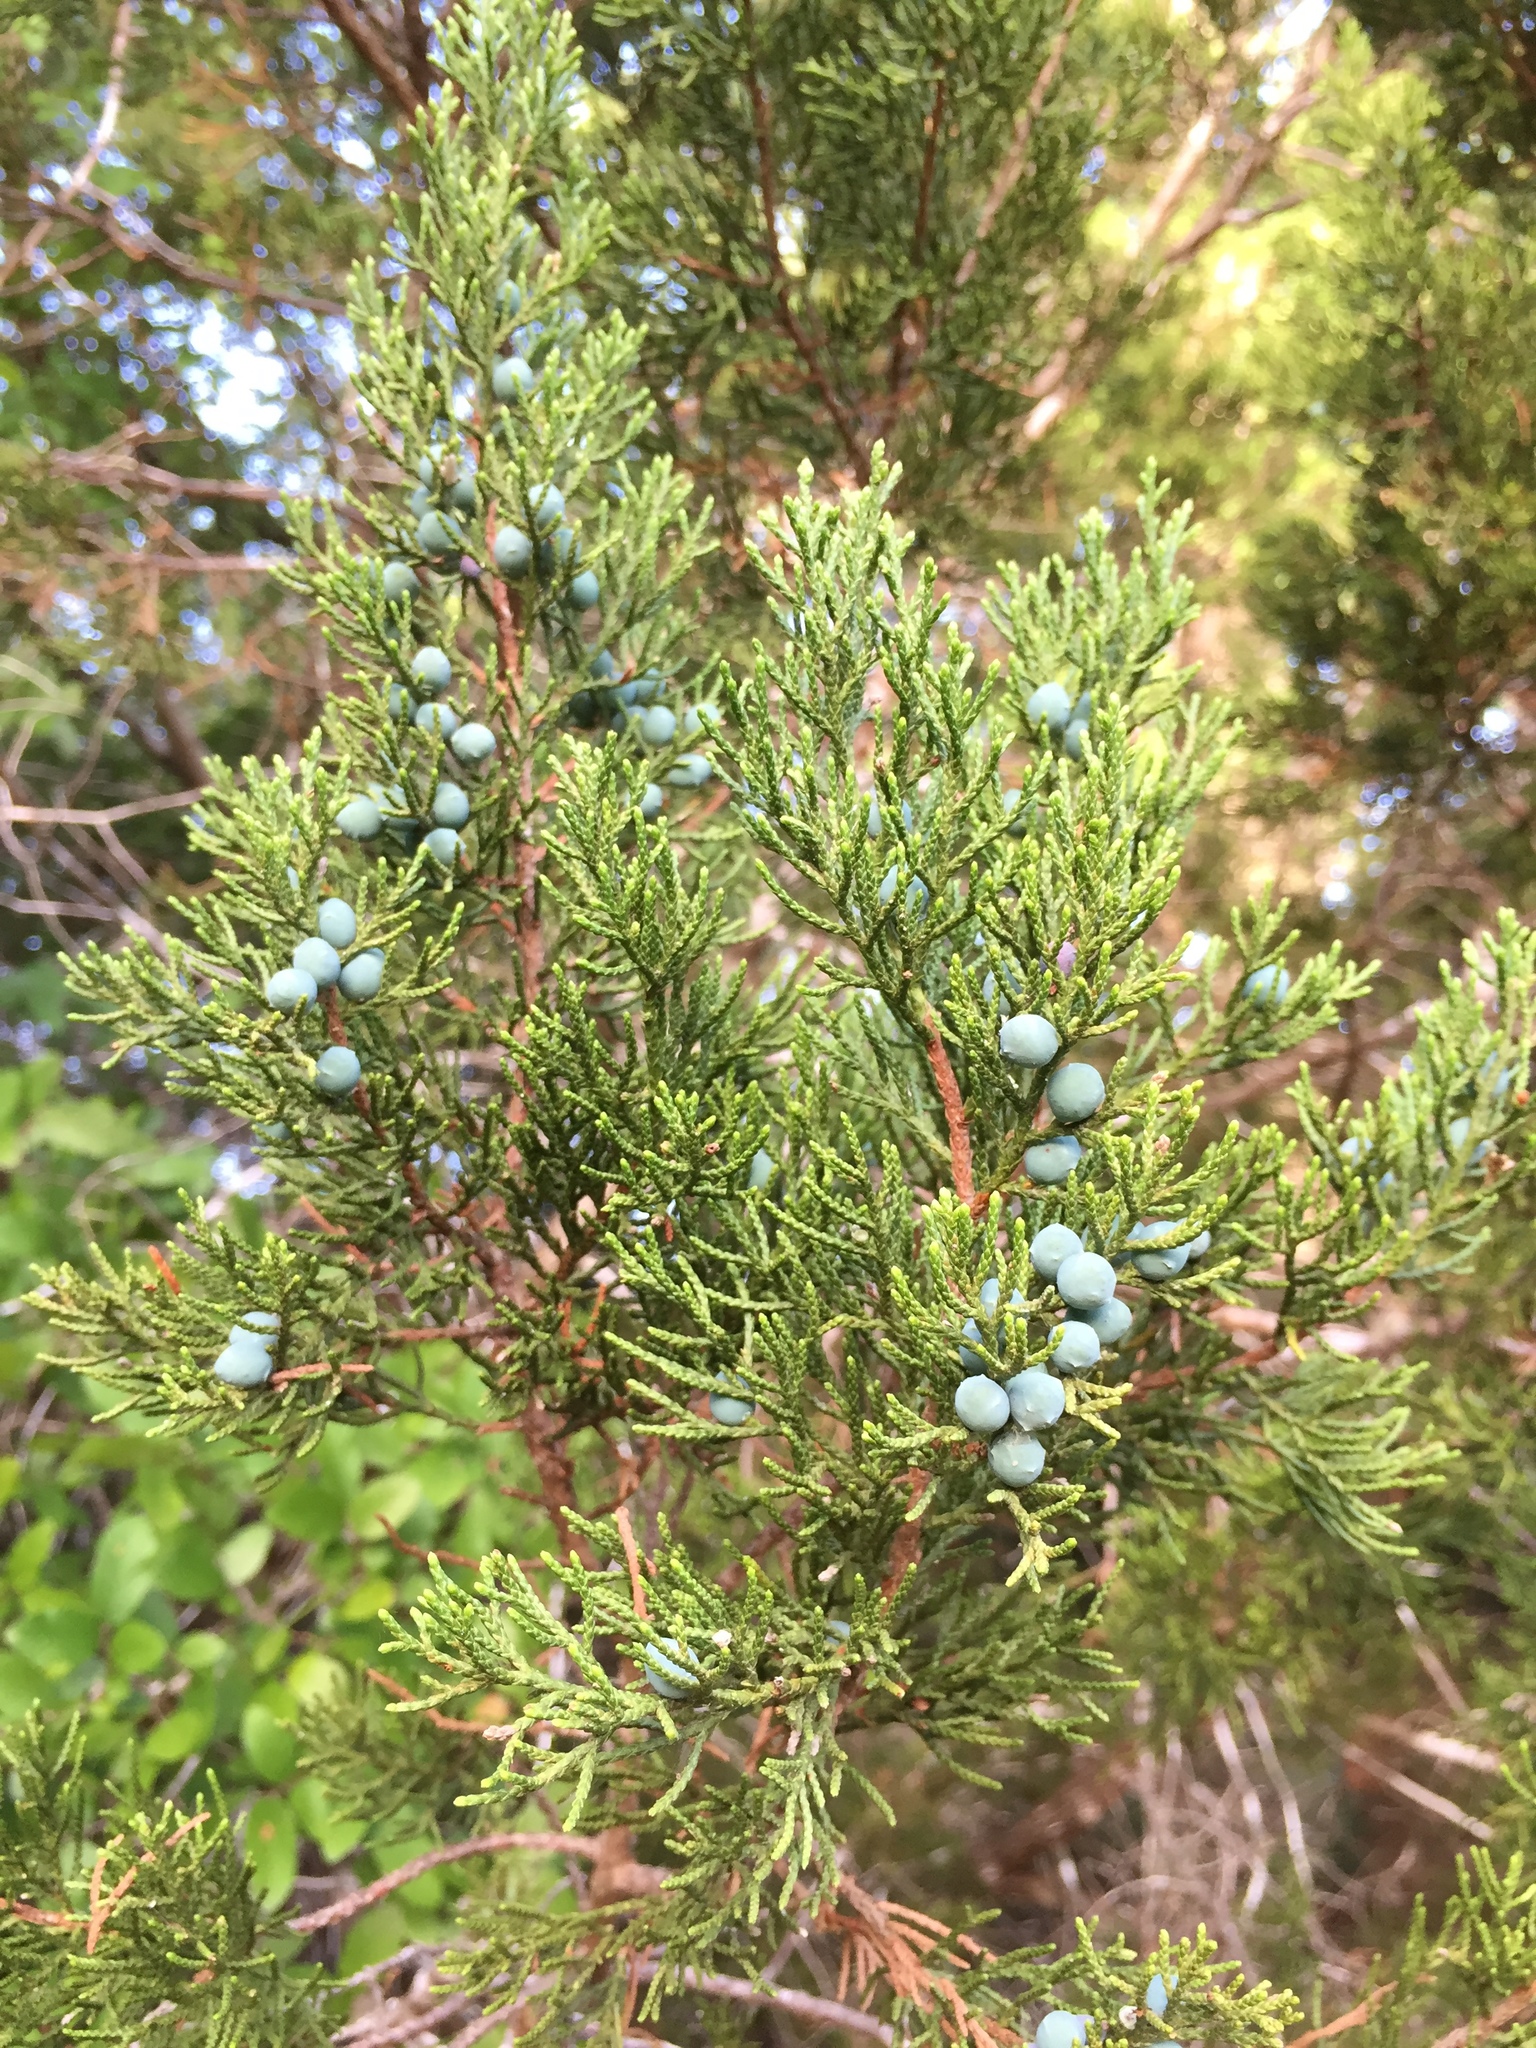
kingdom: Plantae
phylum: Tracheophyta
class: Pinopsida
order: Pinales
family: Cupressaceae
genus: Juniperus
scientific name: Juniperus ashei
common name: Mexican juniper
